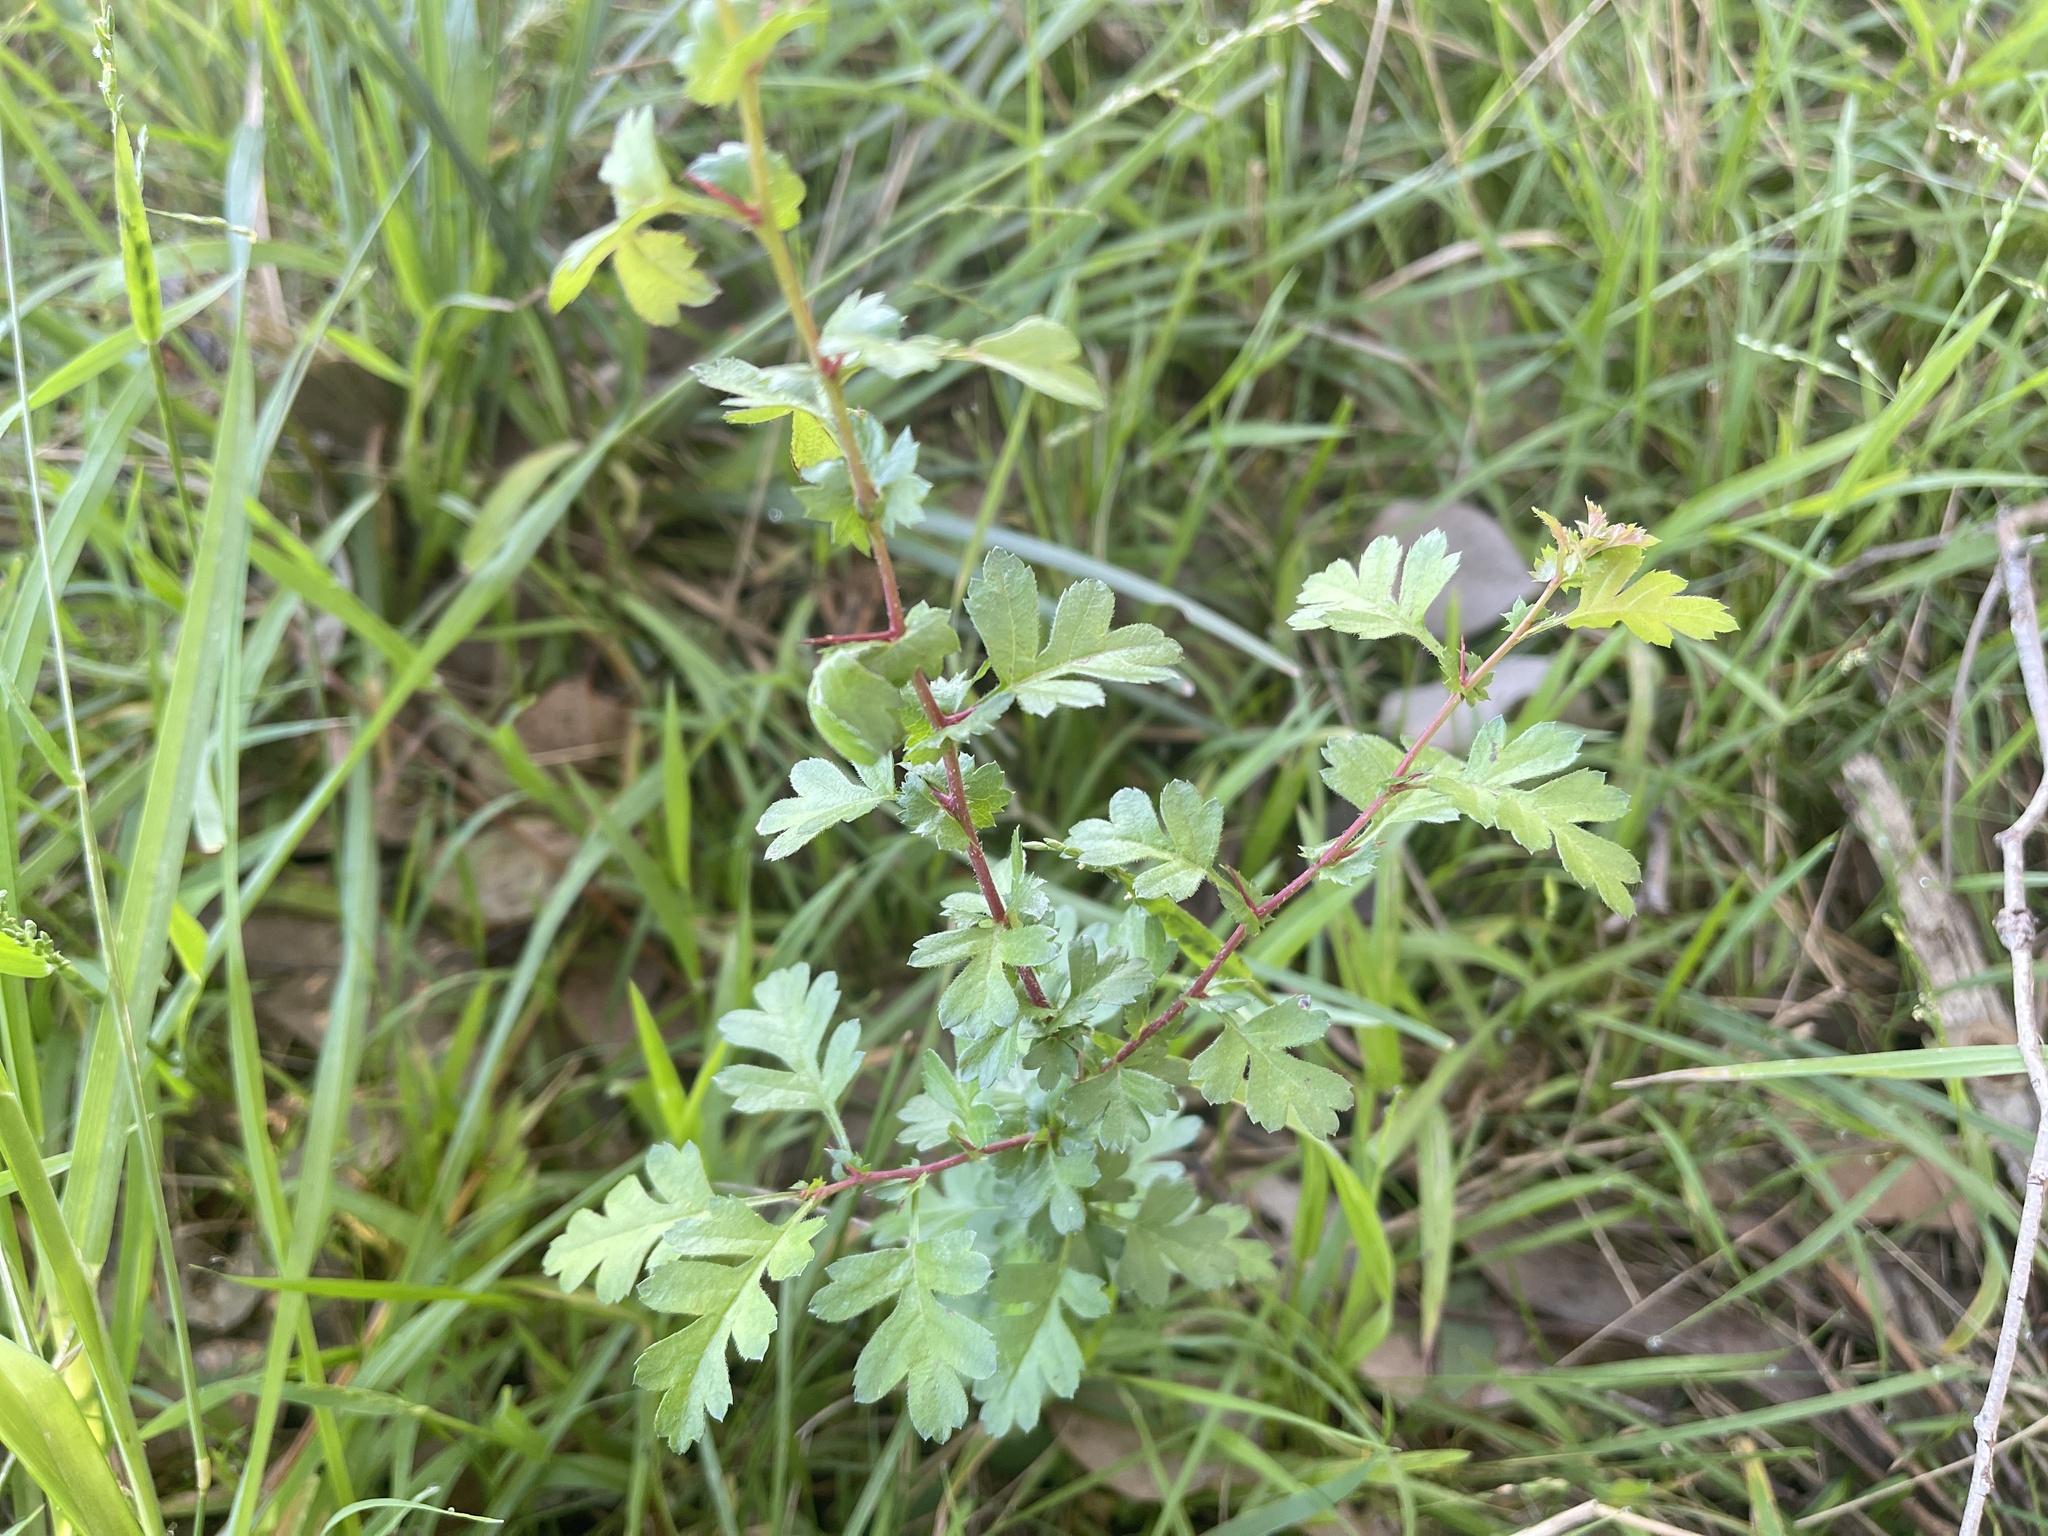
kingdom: Plantae
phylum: Tracheophyta
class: Magnoliopsida
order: Rosales
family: Rosaceae
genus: Crataegus
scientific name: Crataegus monogyna
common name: Hawthorn
